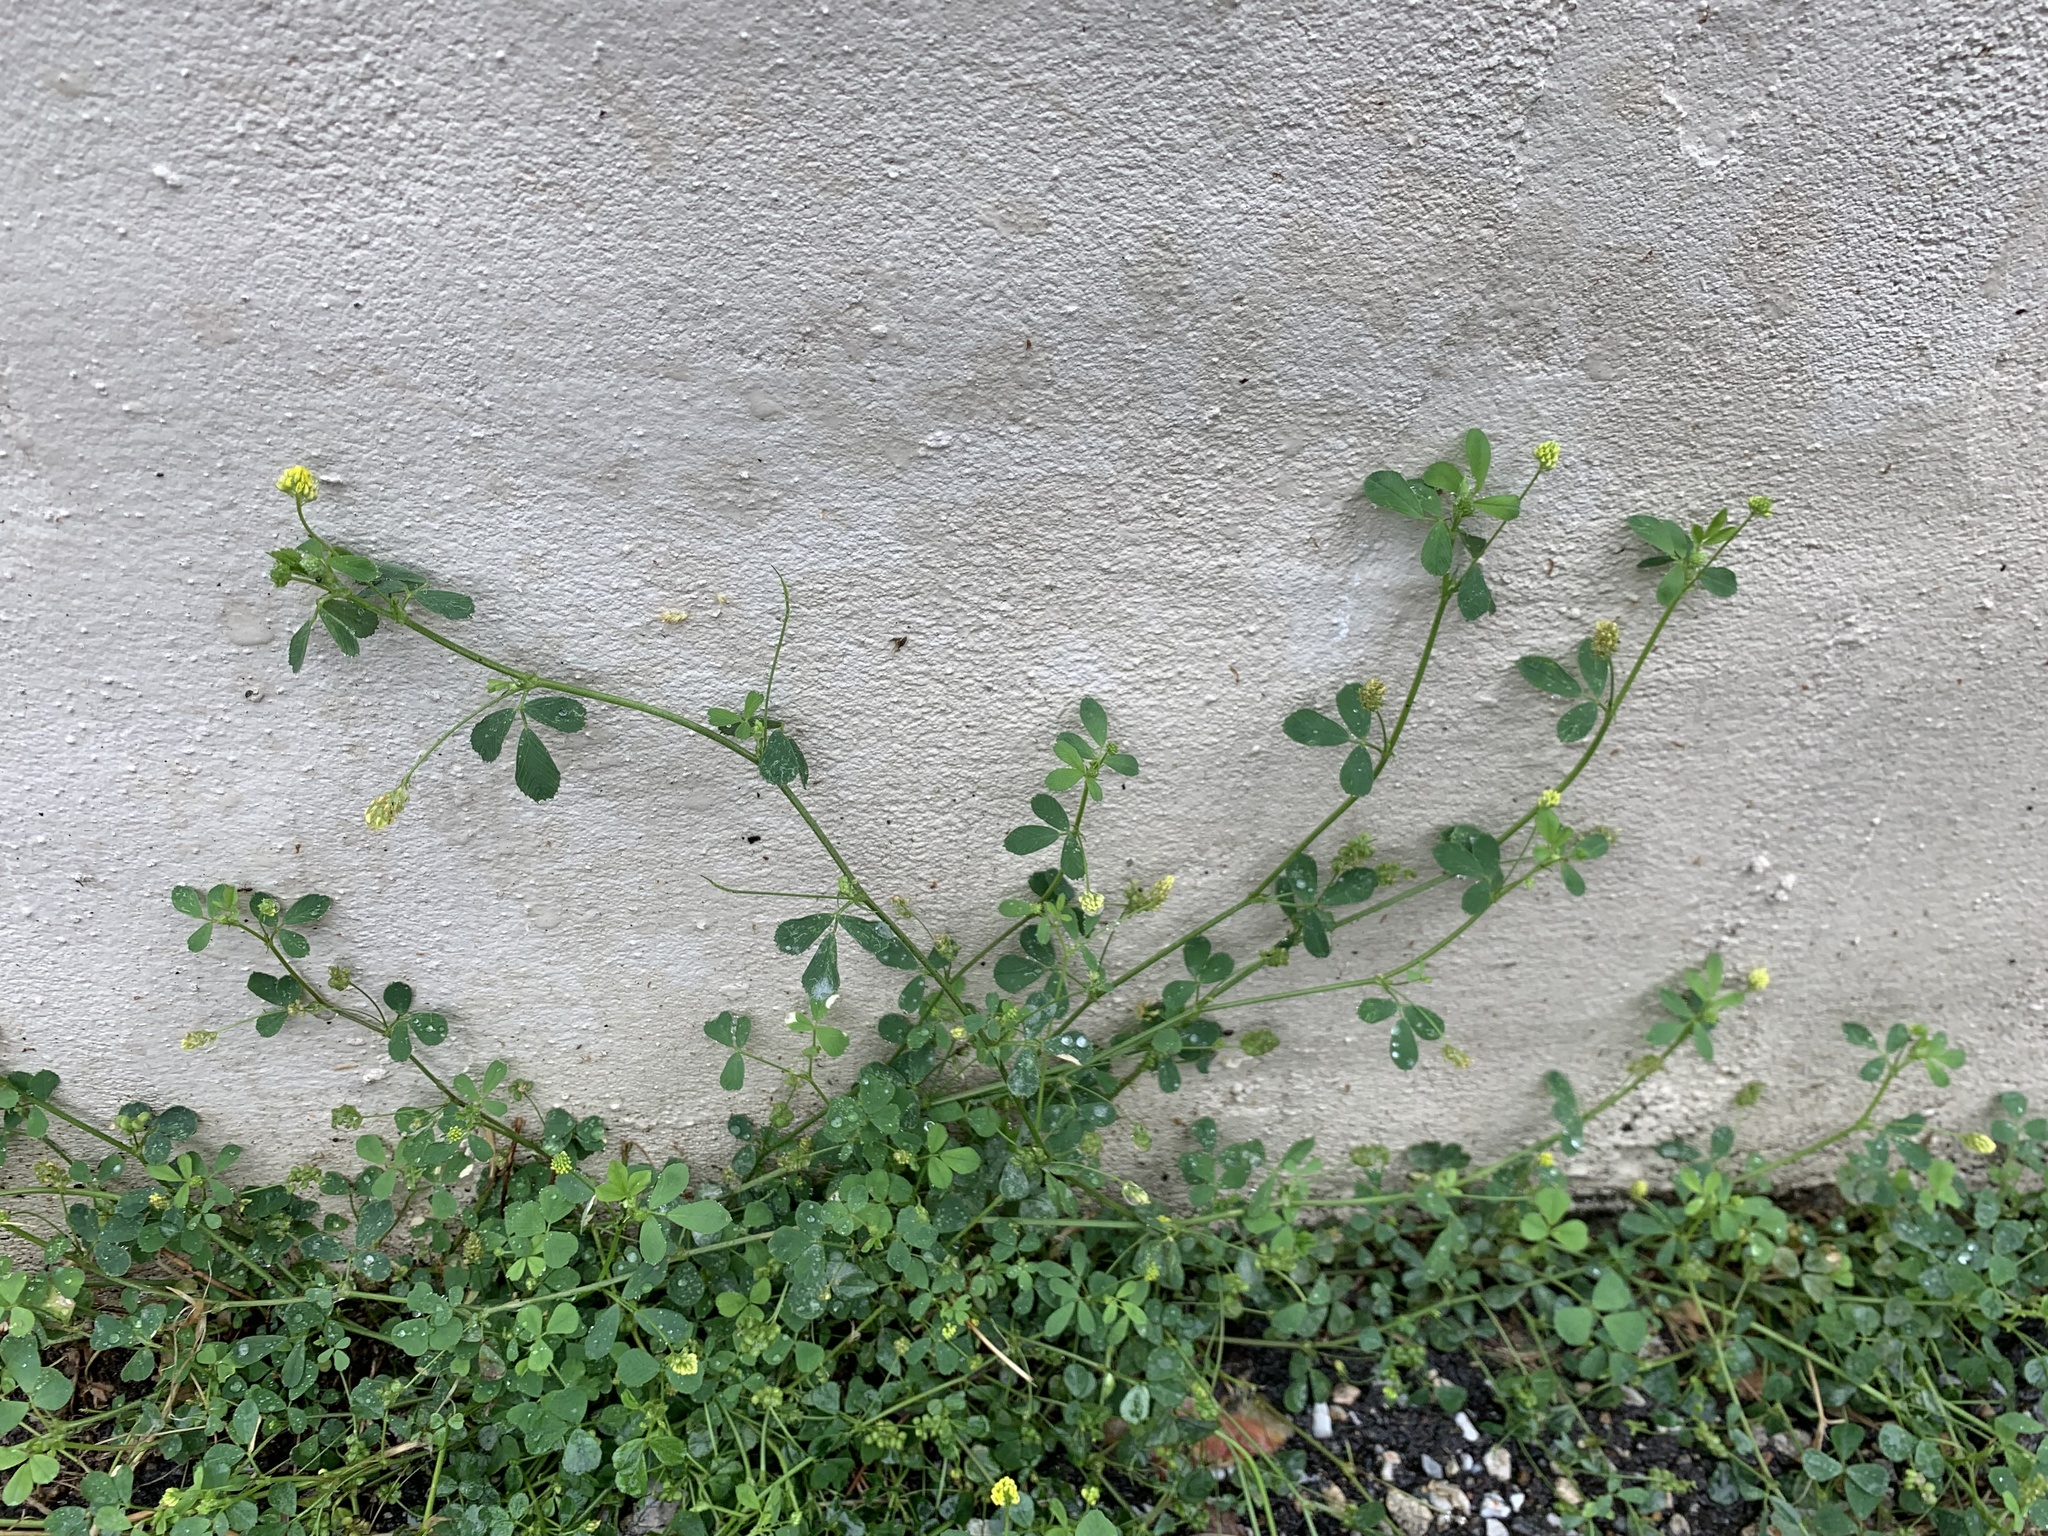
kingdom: Plantae
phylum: Tracheophyta
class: Magnoliopsida
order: Fabales
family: Fabaceae
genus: Medicago
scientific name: Medicago lupulina
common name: Black medick
